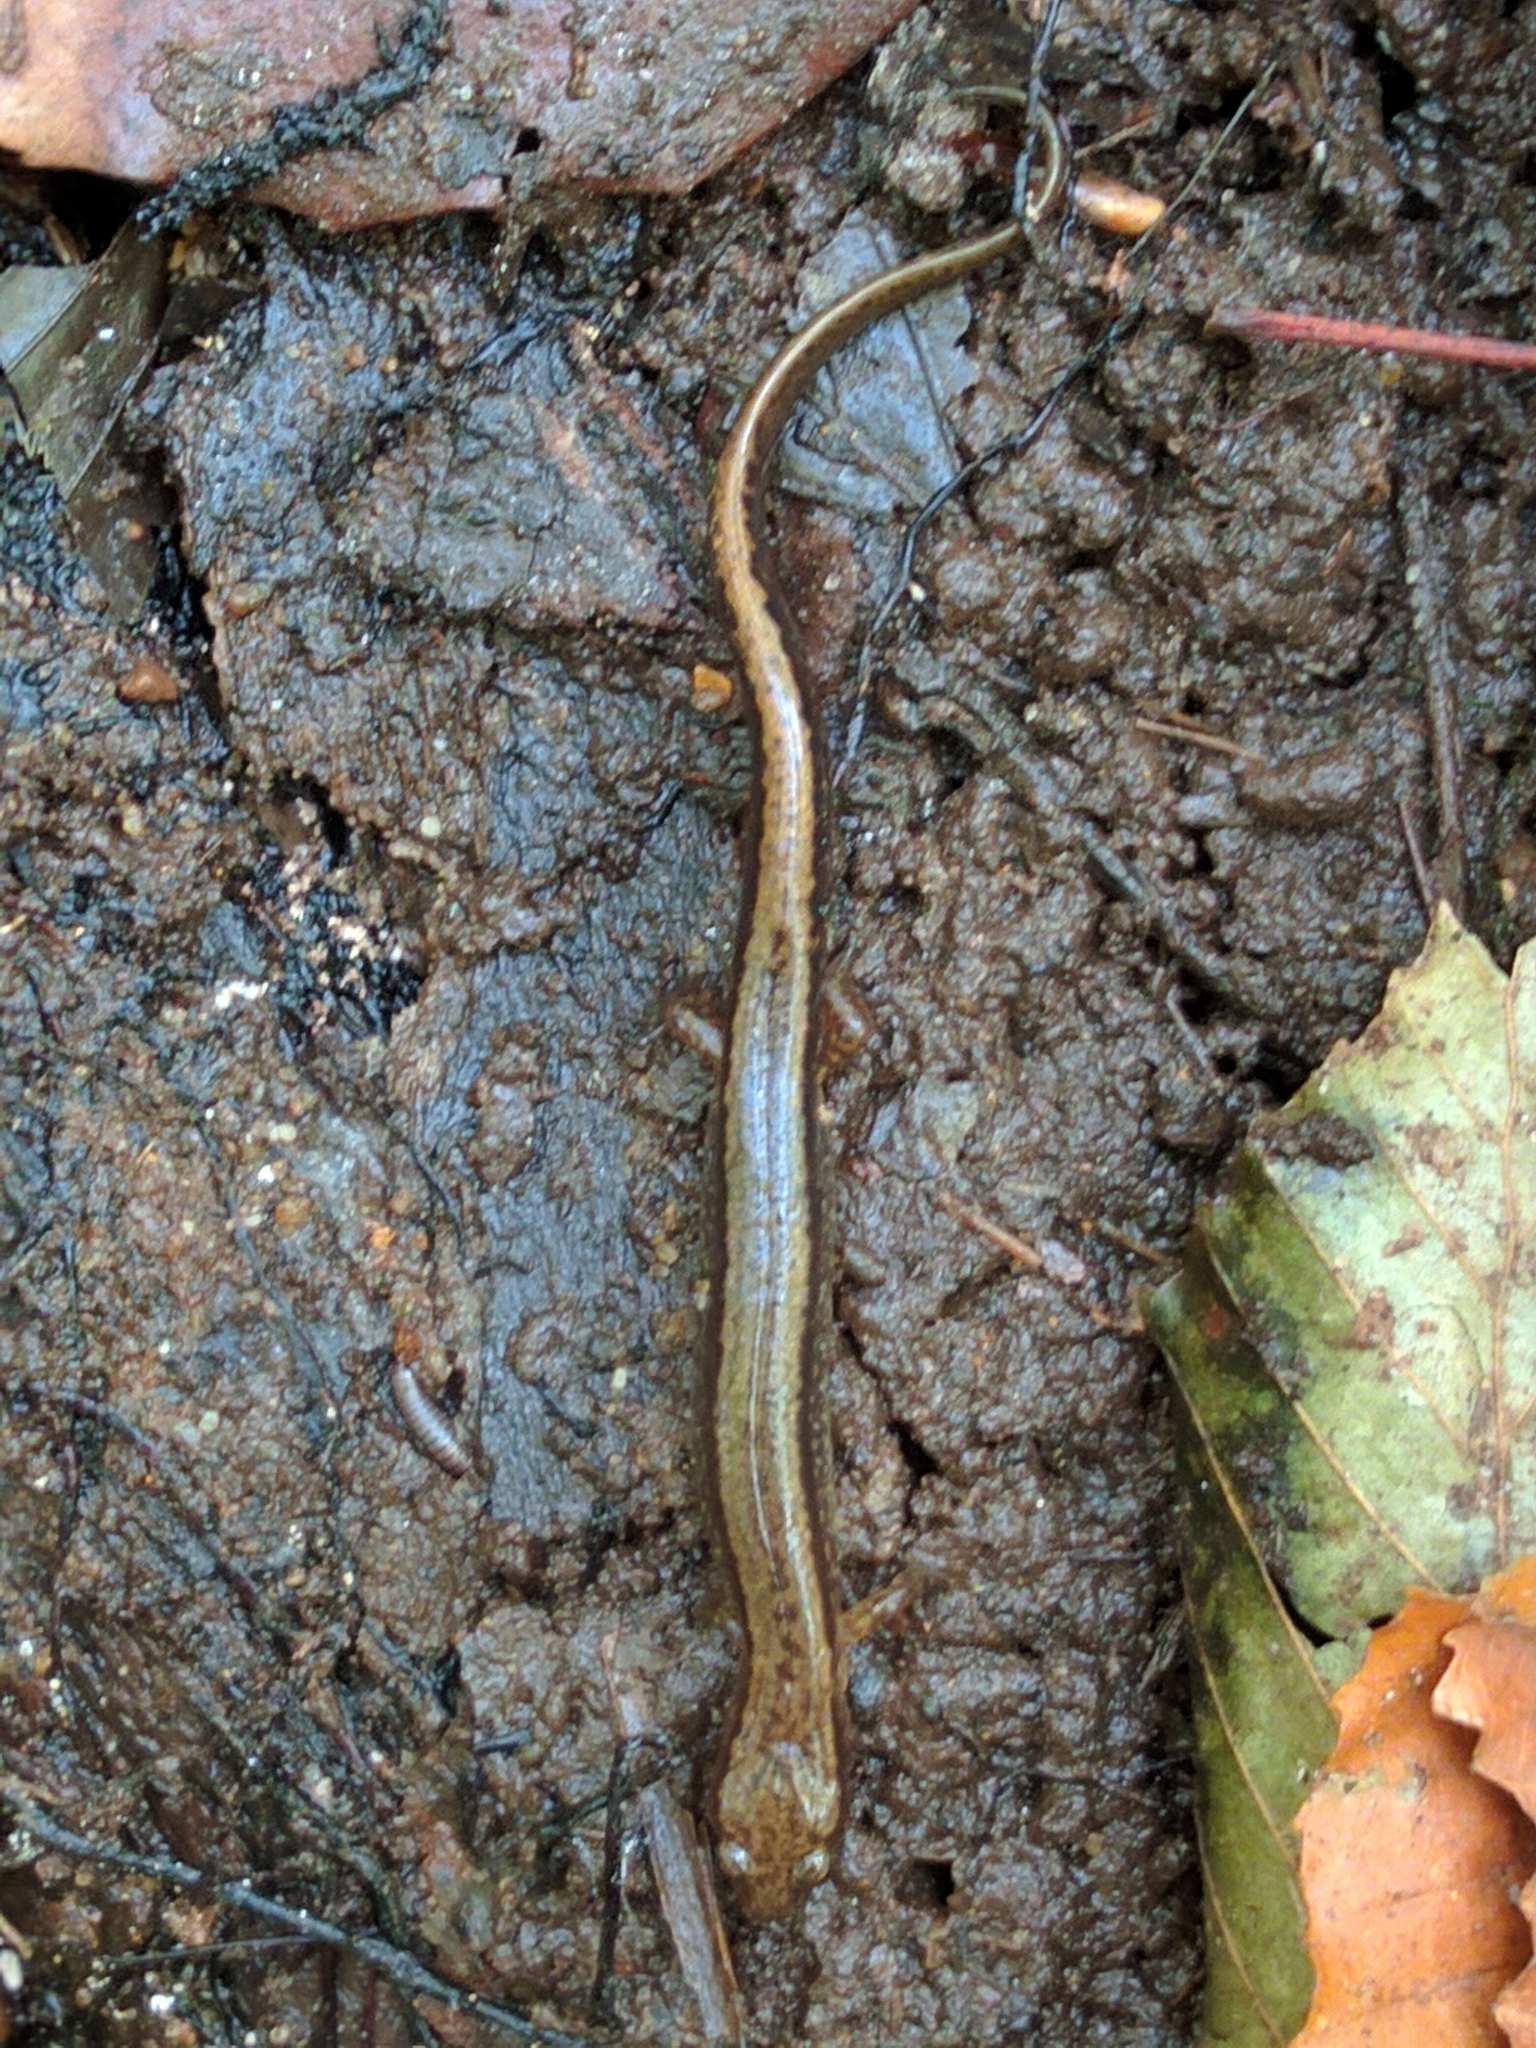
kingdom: Animalia
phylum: Chordata
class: Amphibia
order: Caudata
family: Plethodontidae
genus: Eurycea
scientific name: Eurycea bislineata
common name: Northern two-lined salamander
